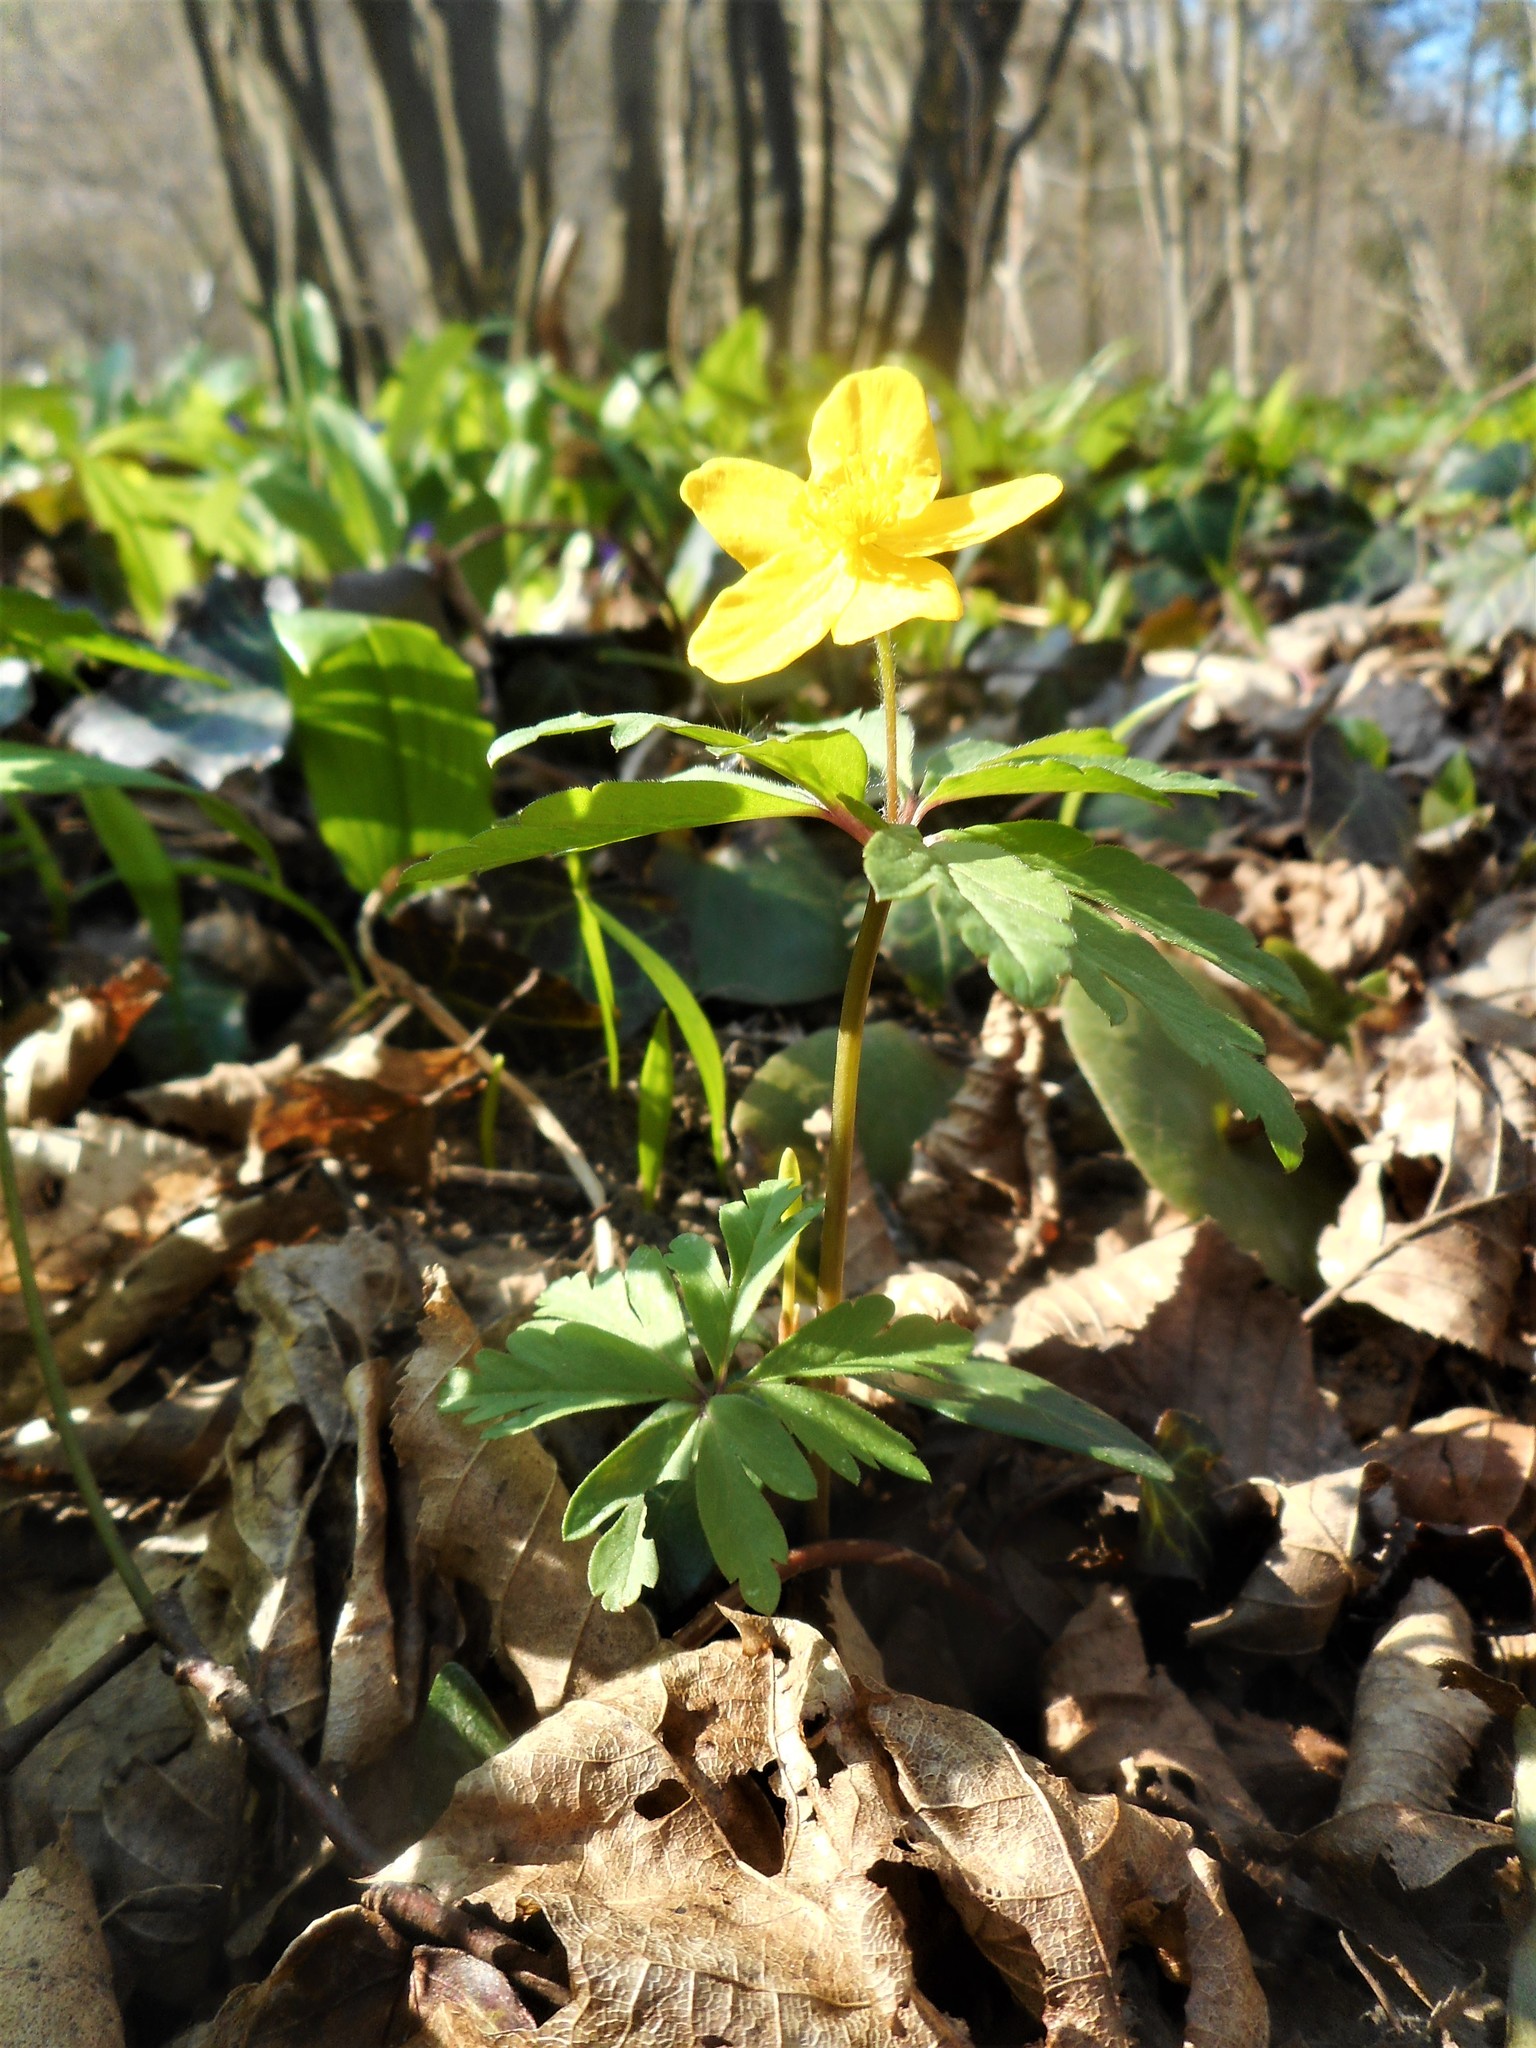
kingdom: Plantae
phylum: Tracheophyta
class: Magnoliopsida
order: Ranunculales
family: Ranunculaceae
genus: Anemone
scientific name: Anemone ranunculoides
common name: Yellow anemone
